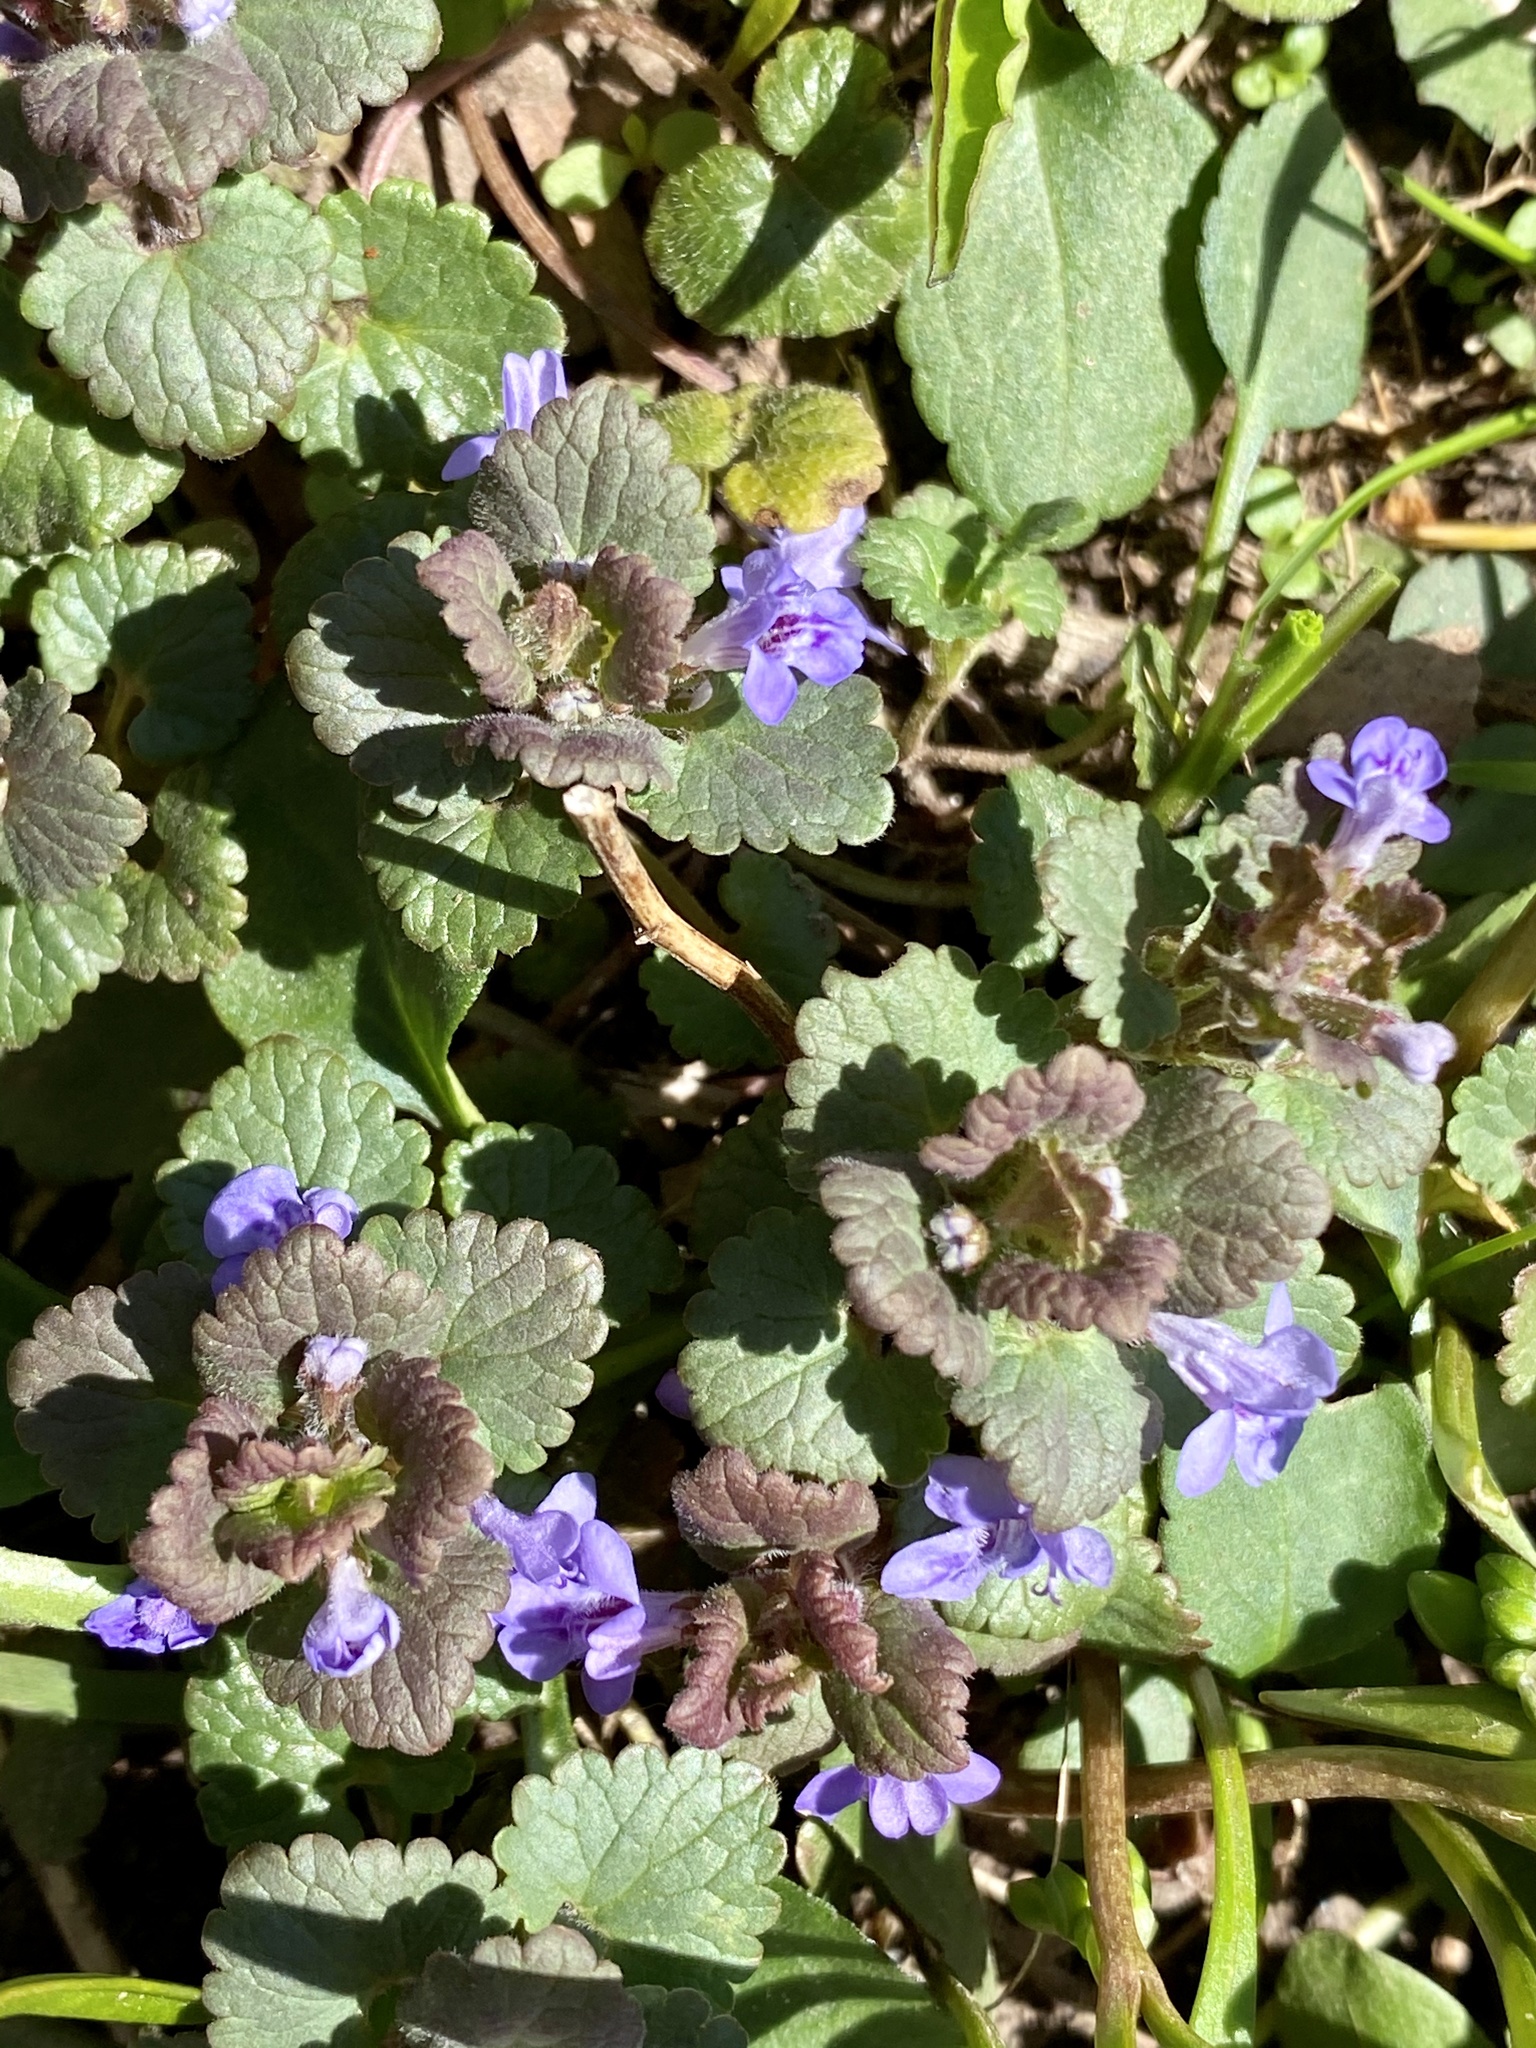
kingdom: Plantae
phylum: Tracheophyta
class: Magnoliopsida
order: Lamiales
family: Lamiaceae
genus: Glechoma
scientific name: Glechoma hederacea
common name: Ground ivy
